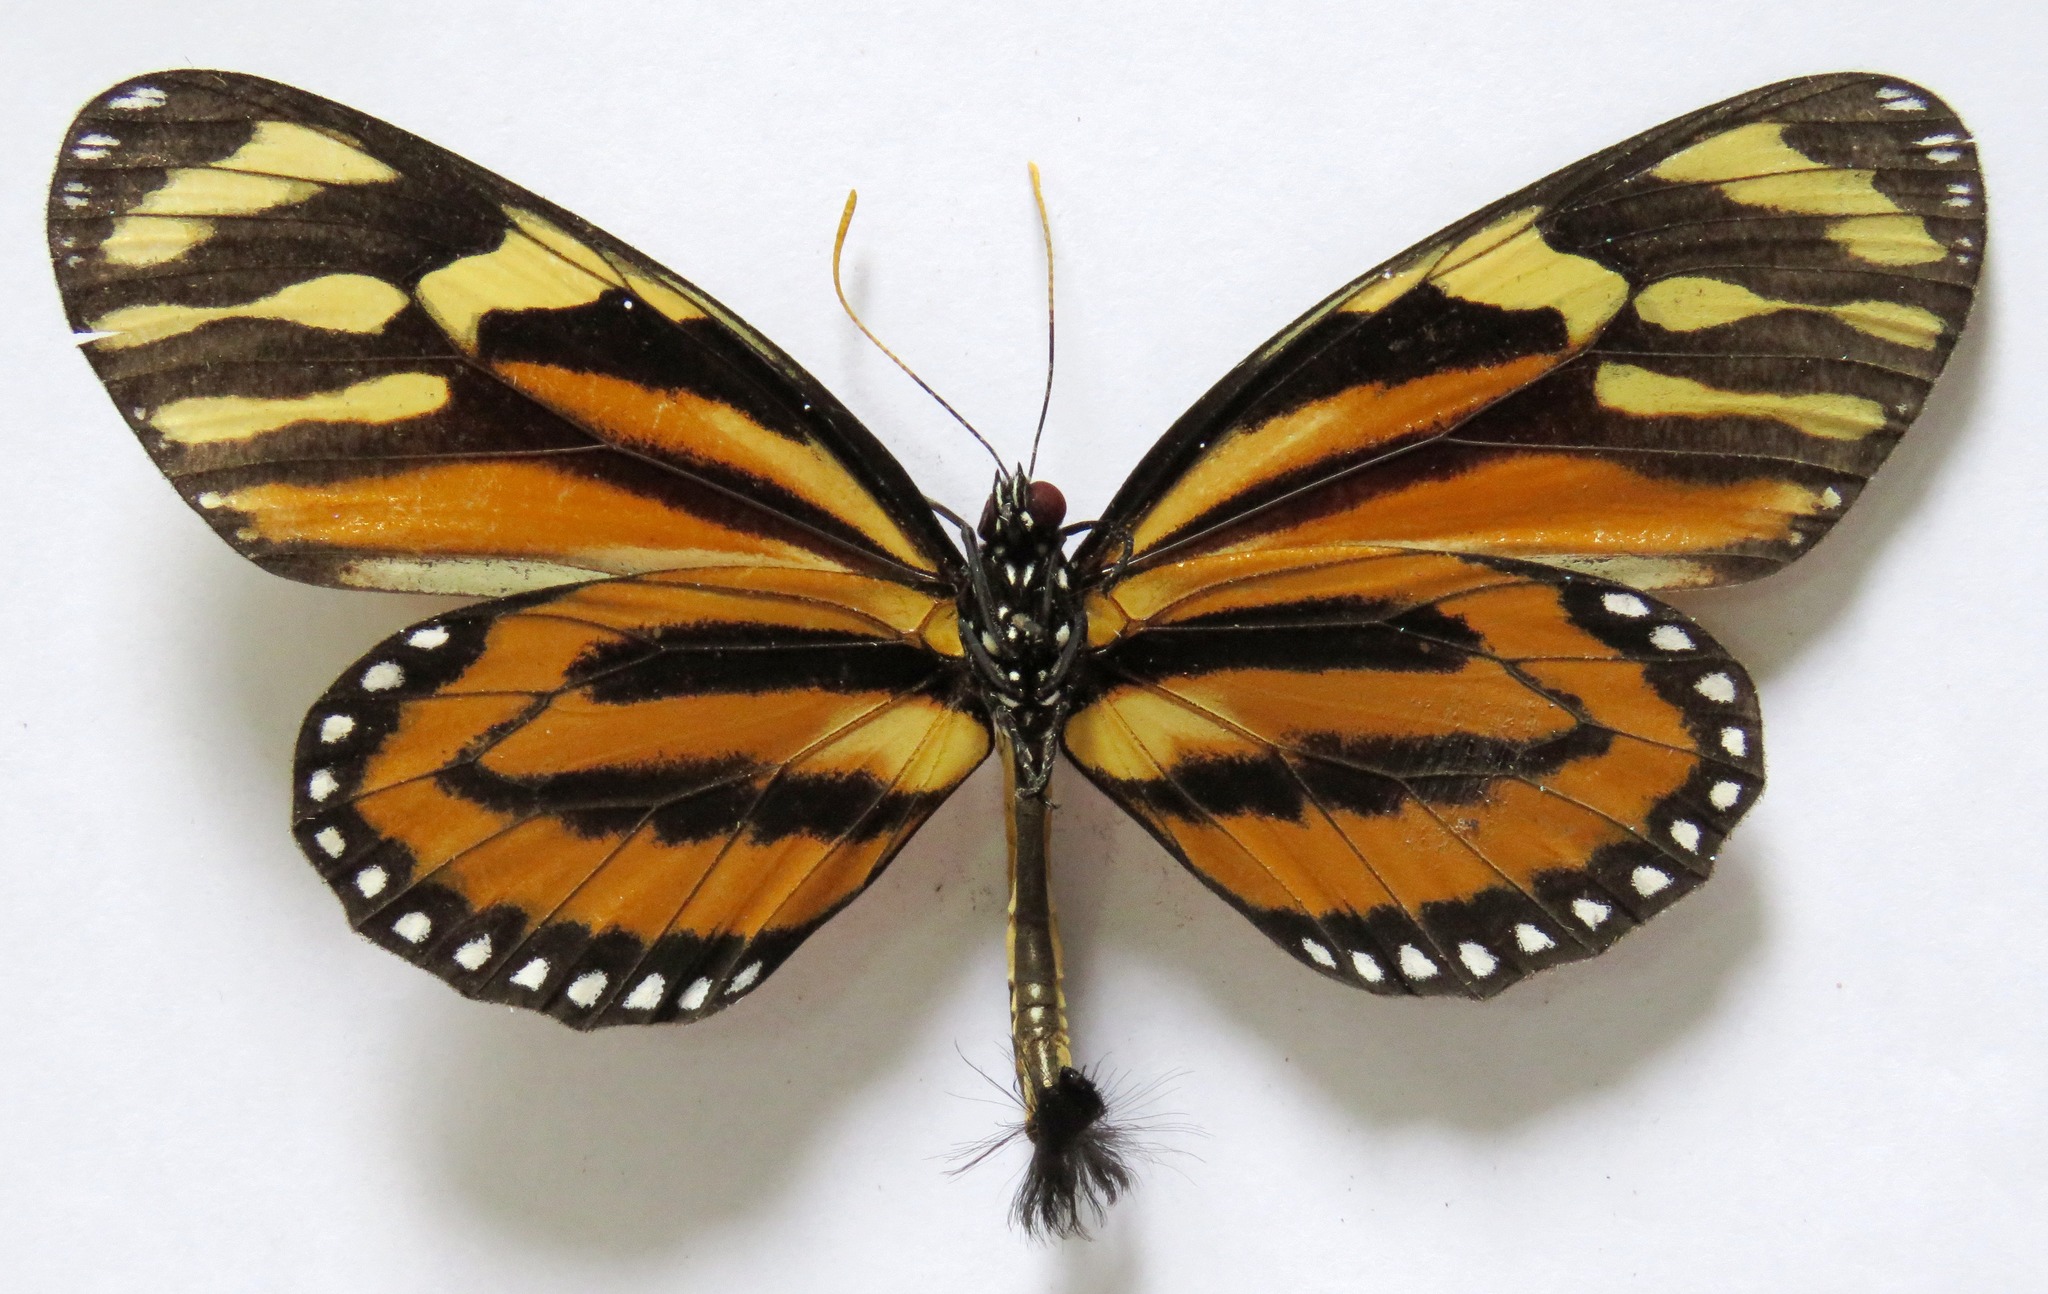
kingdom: Animalia
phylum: Arthropoda
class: Insecta
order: Lepidoptera
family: Nymphalidae
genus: Lycorea
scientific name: Lycorea cleobaea
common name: Tiger mimic-queen
